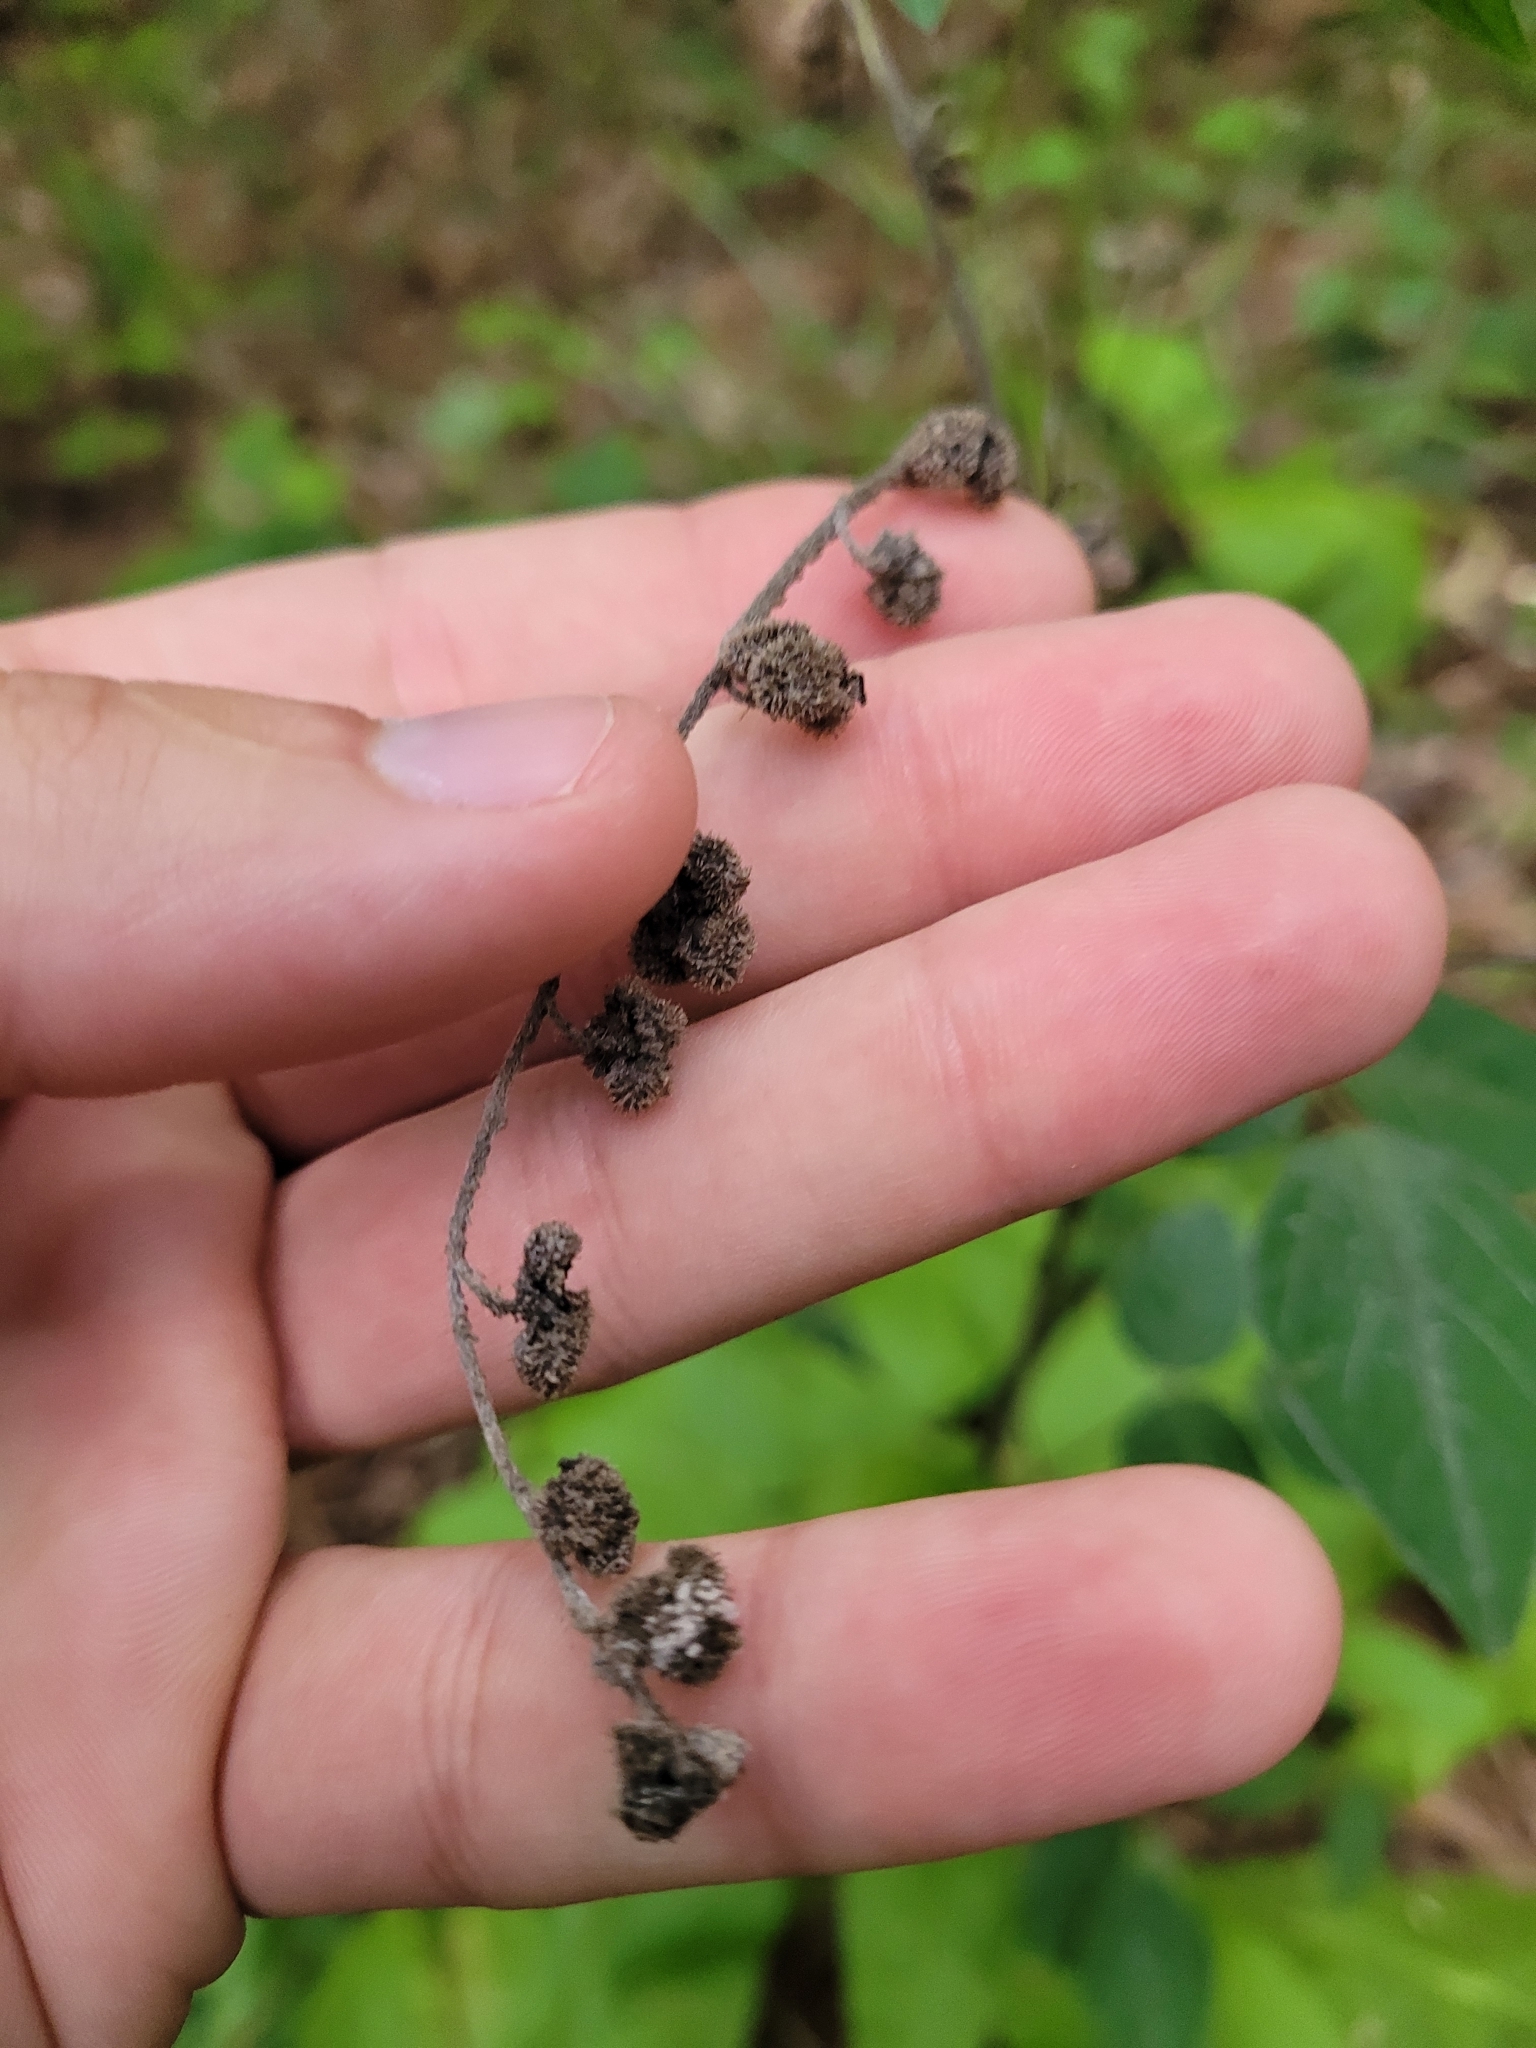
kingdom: Plantae
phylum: Tracheophyta
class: Magnoliopsida
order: Boraginales
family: Boraginaceae
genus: Andersonglossum
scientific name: Andersonglossum virginianum
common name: Wild comfrey
